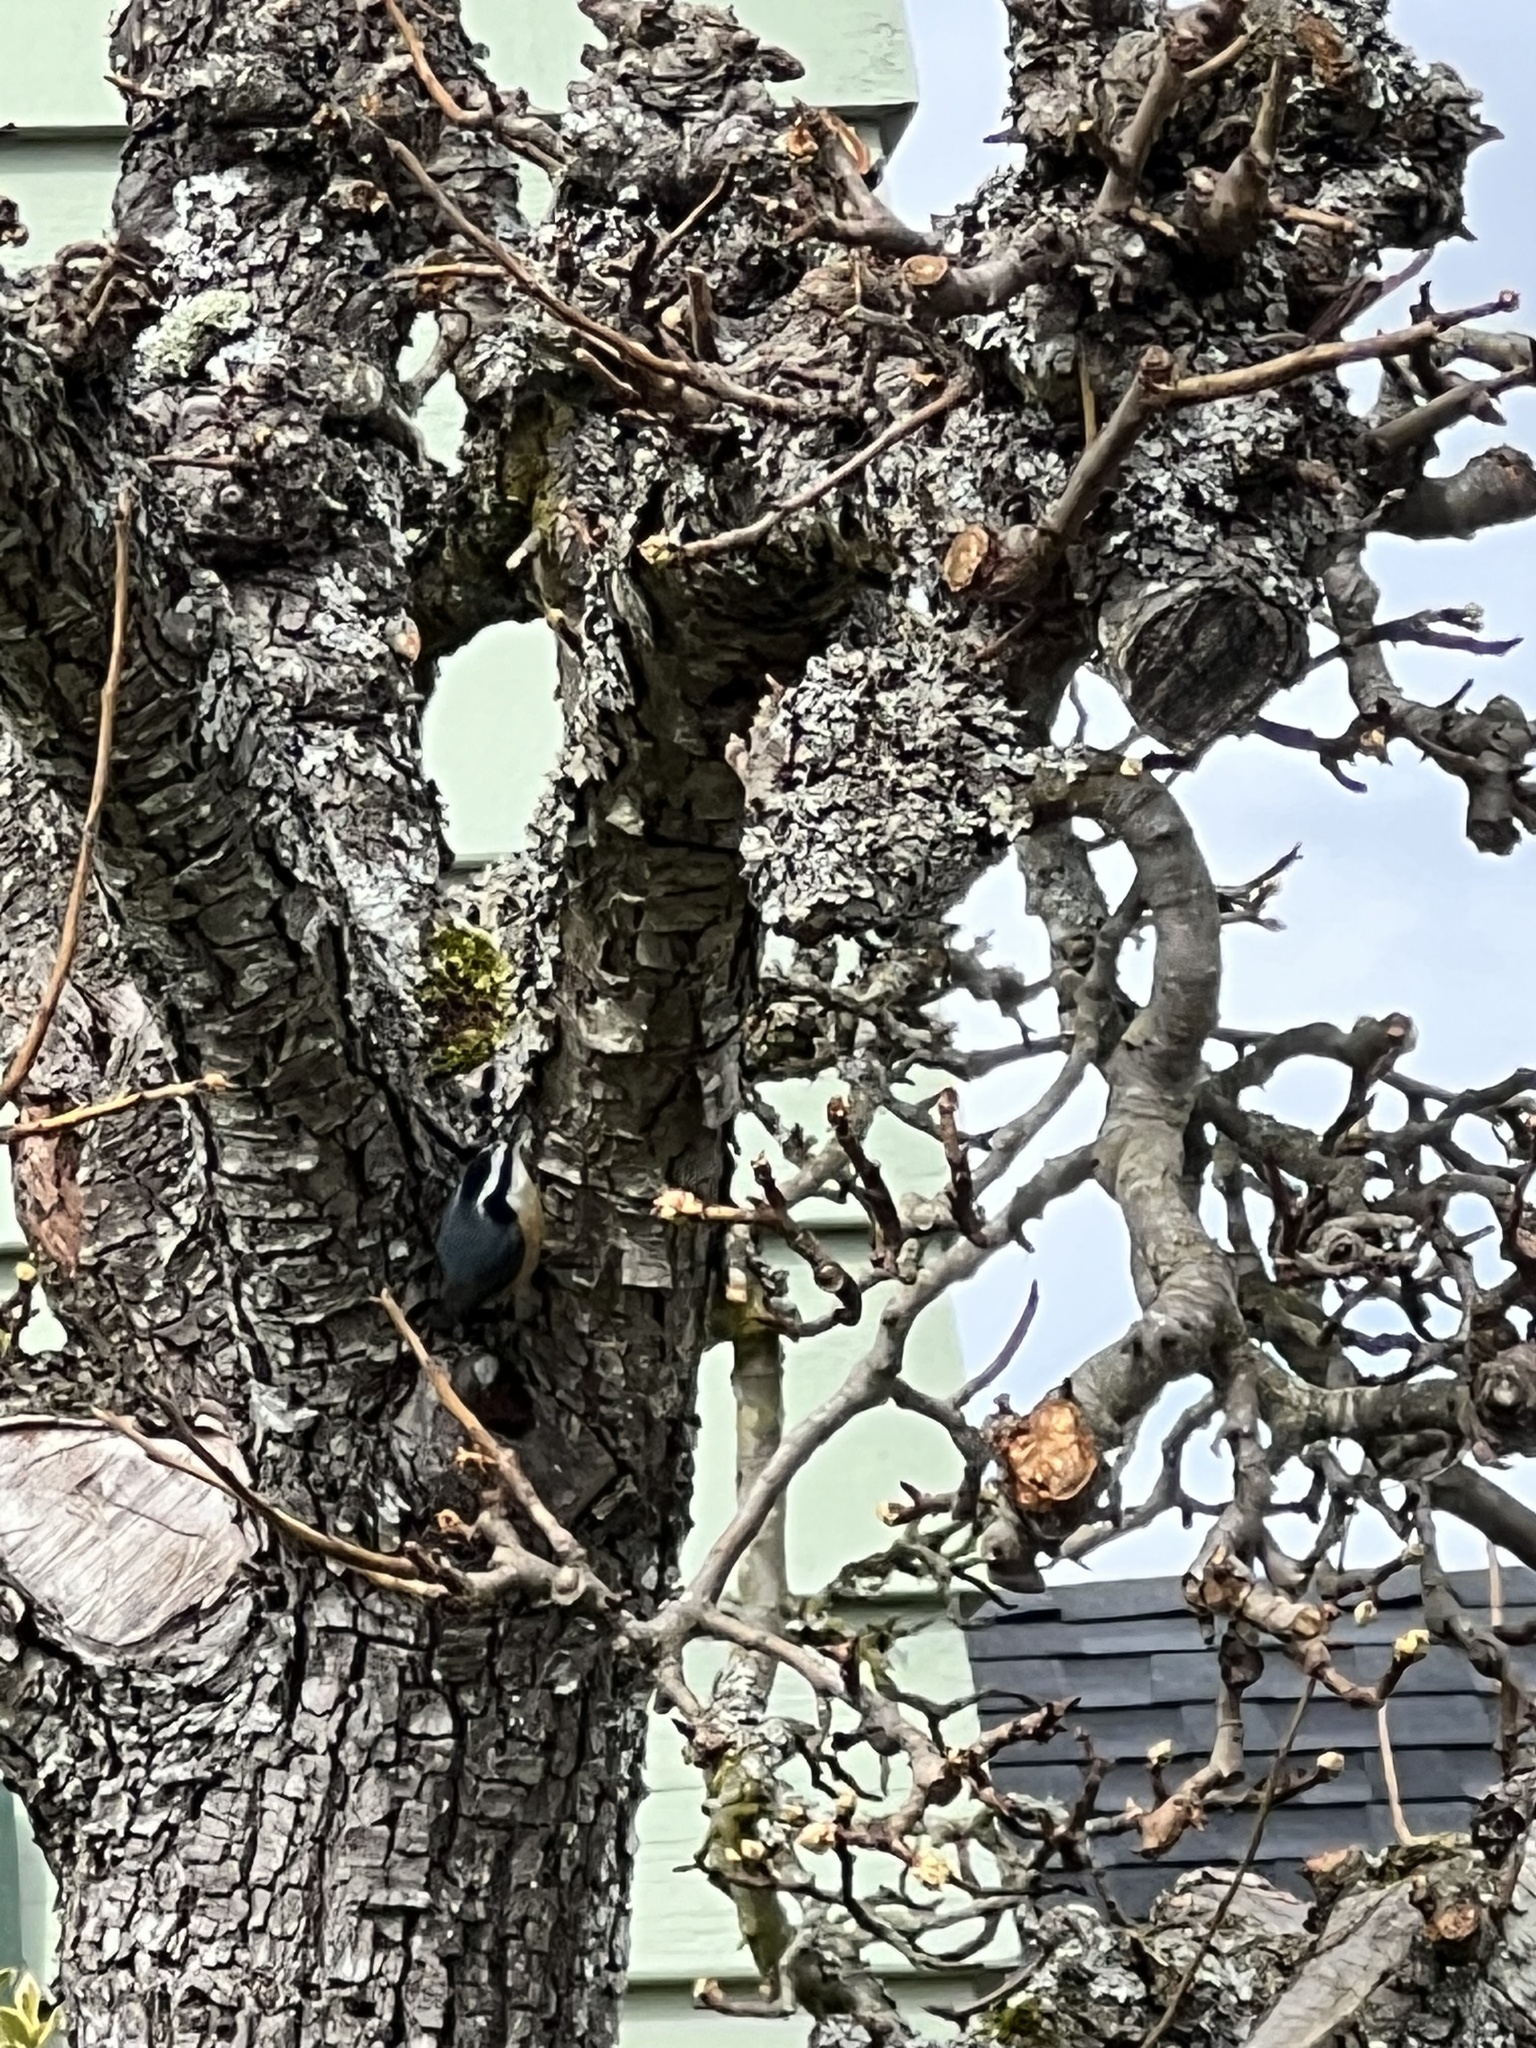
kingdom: Animalia
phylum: Chordata
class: Aves
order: Passeriformes
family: Sittidae
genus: Sitta
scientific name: Sitta canadensis
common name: Red-breasted nuthatch
